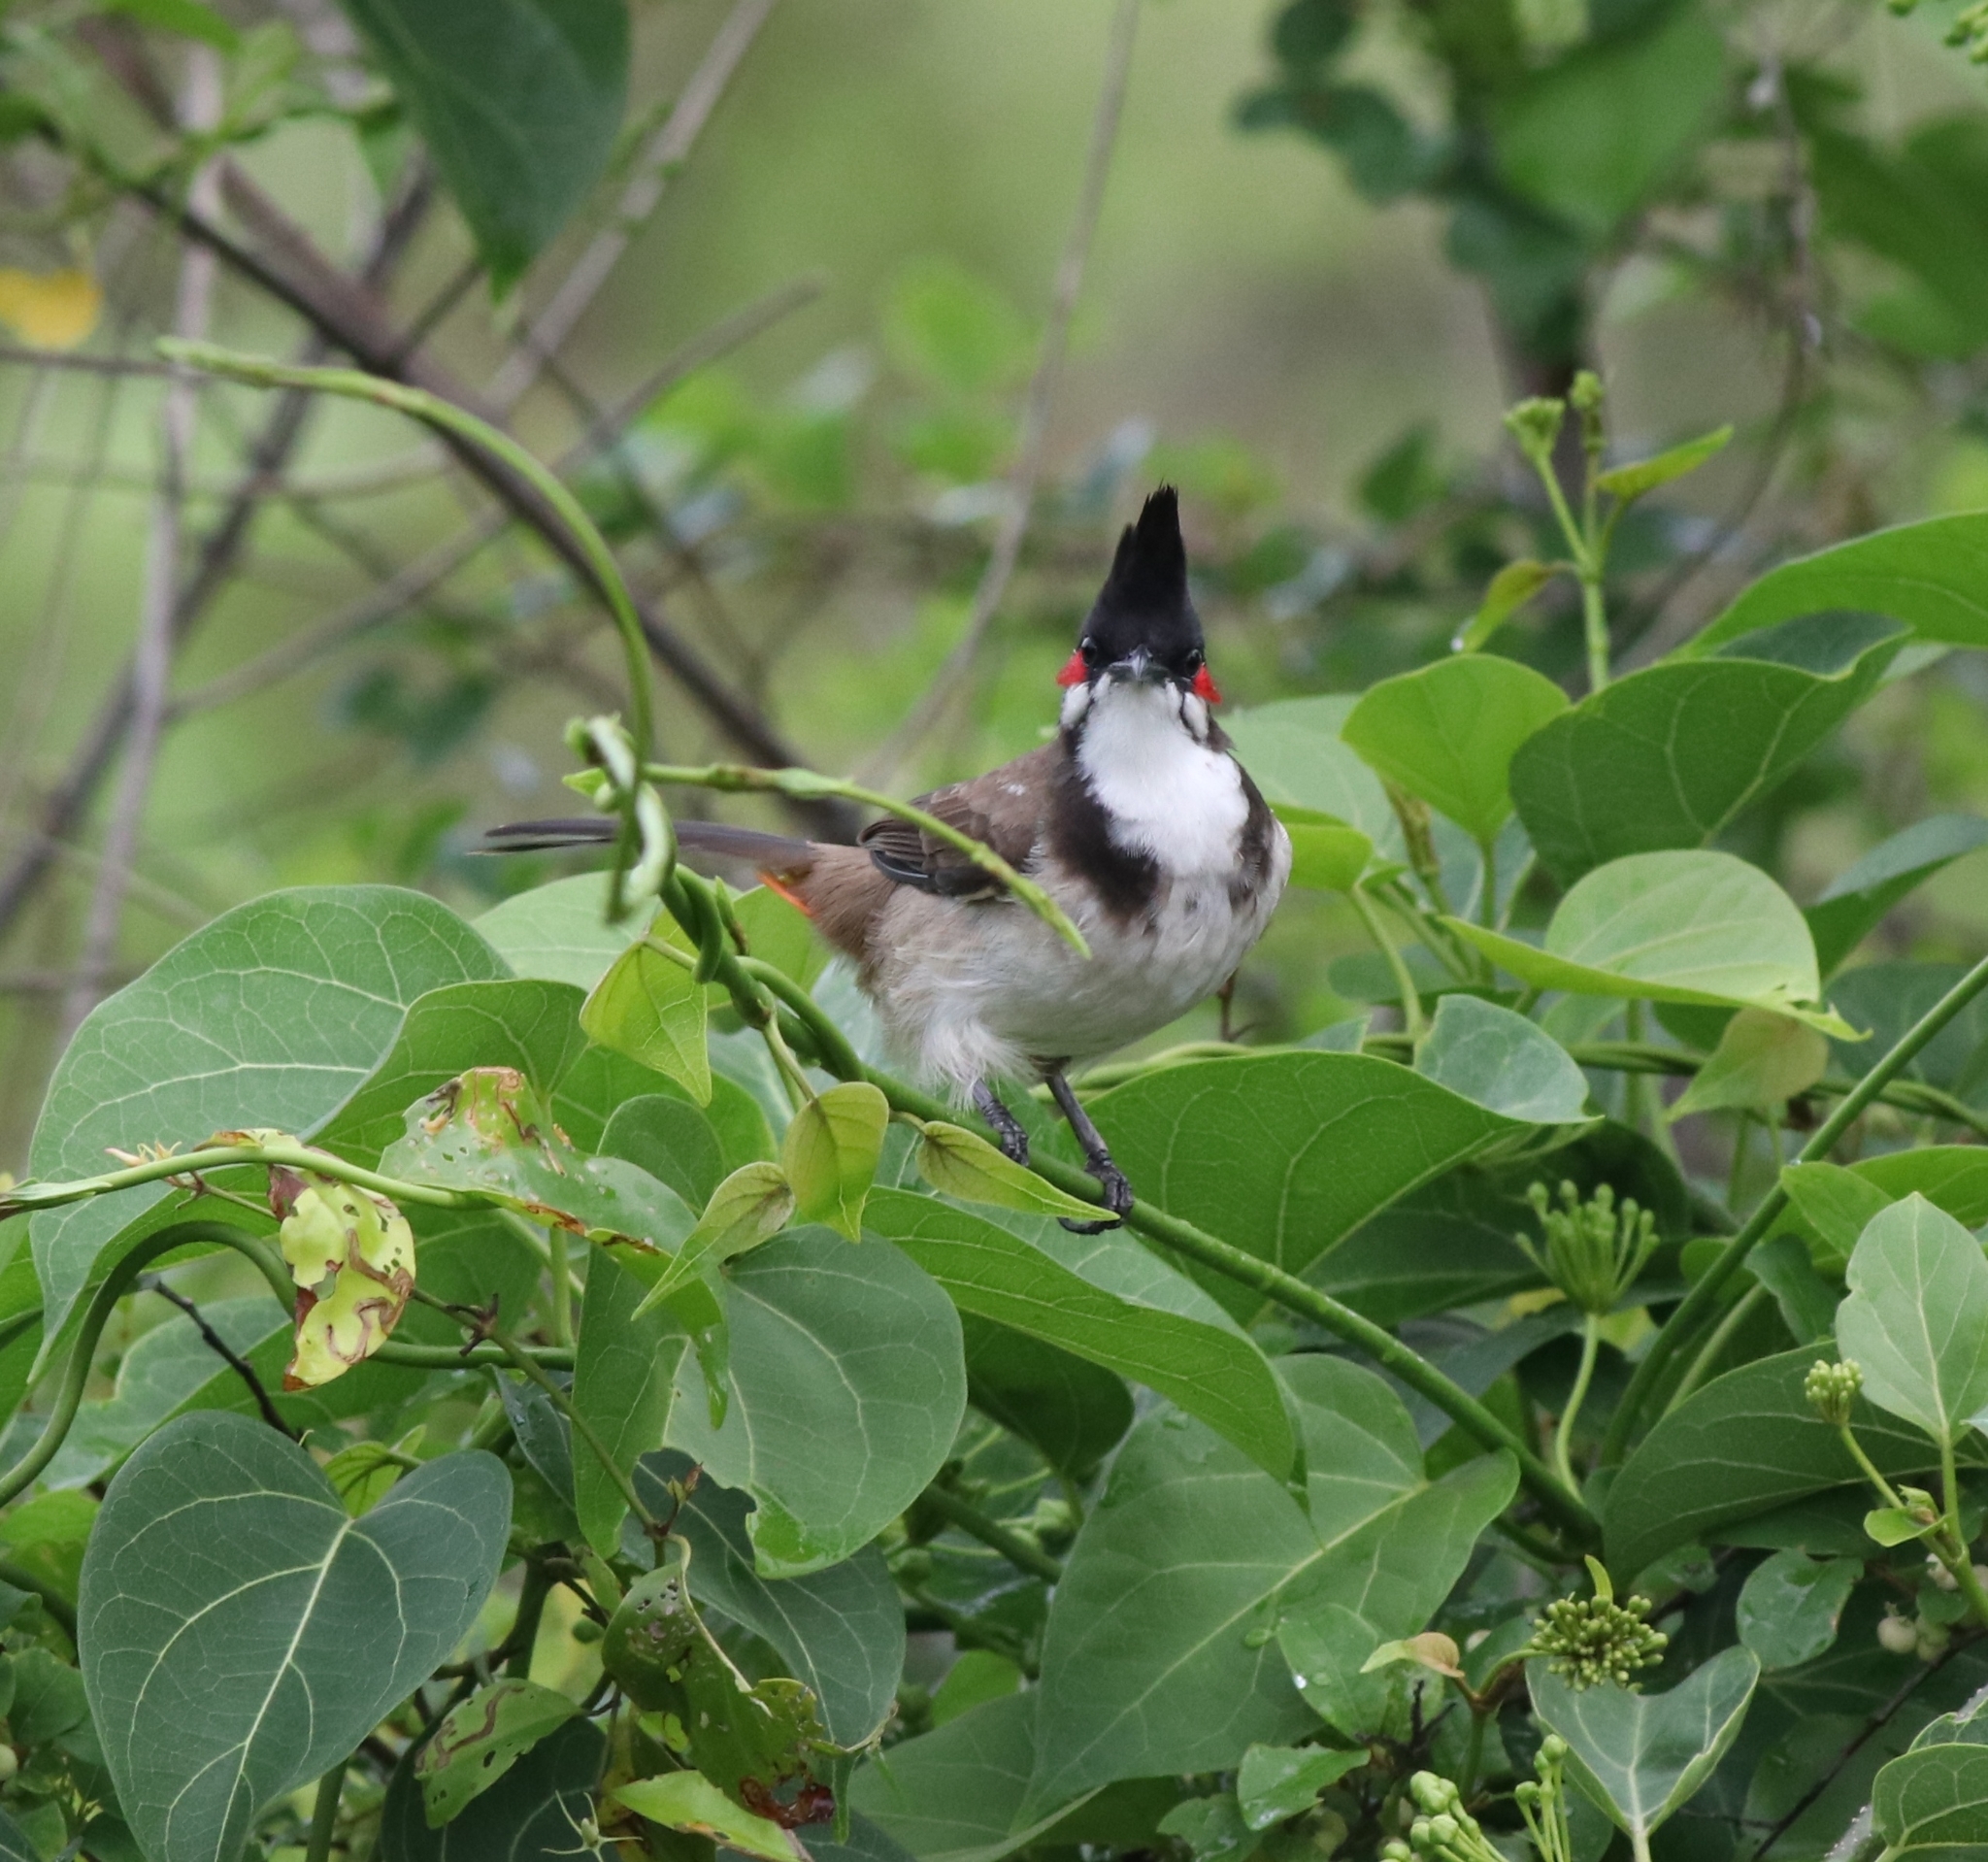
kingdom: Animalia
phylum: Chordata
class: Aves
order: Passeriformes
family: Pycnonotidae
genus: Pycnonotus
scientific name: Pycnonotus jocosus
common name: Red-whiskered bulbul
